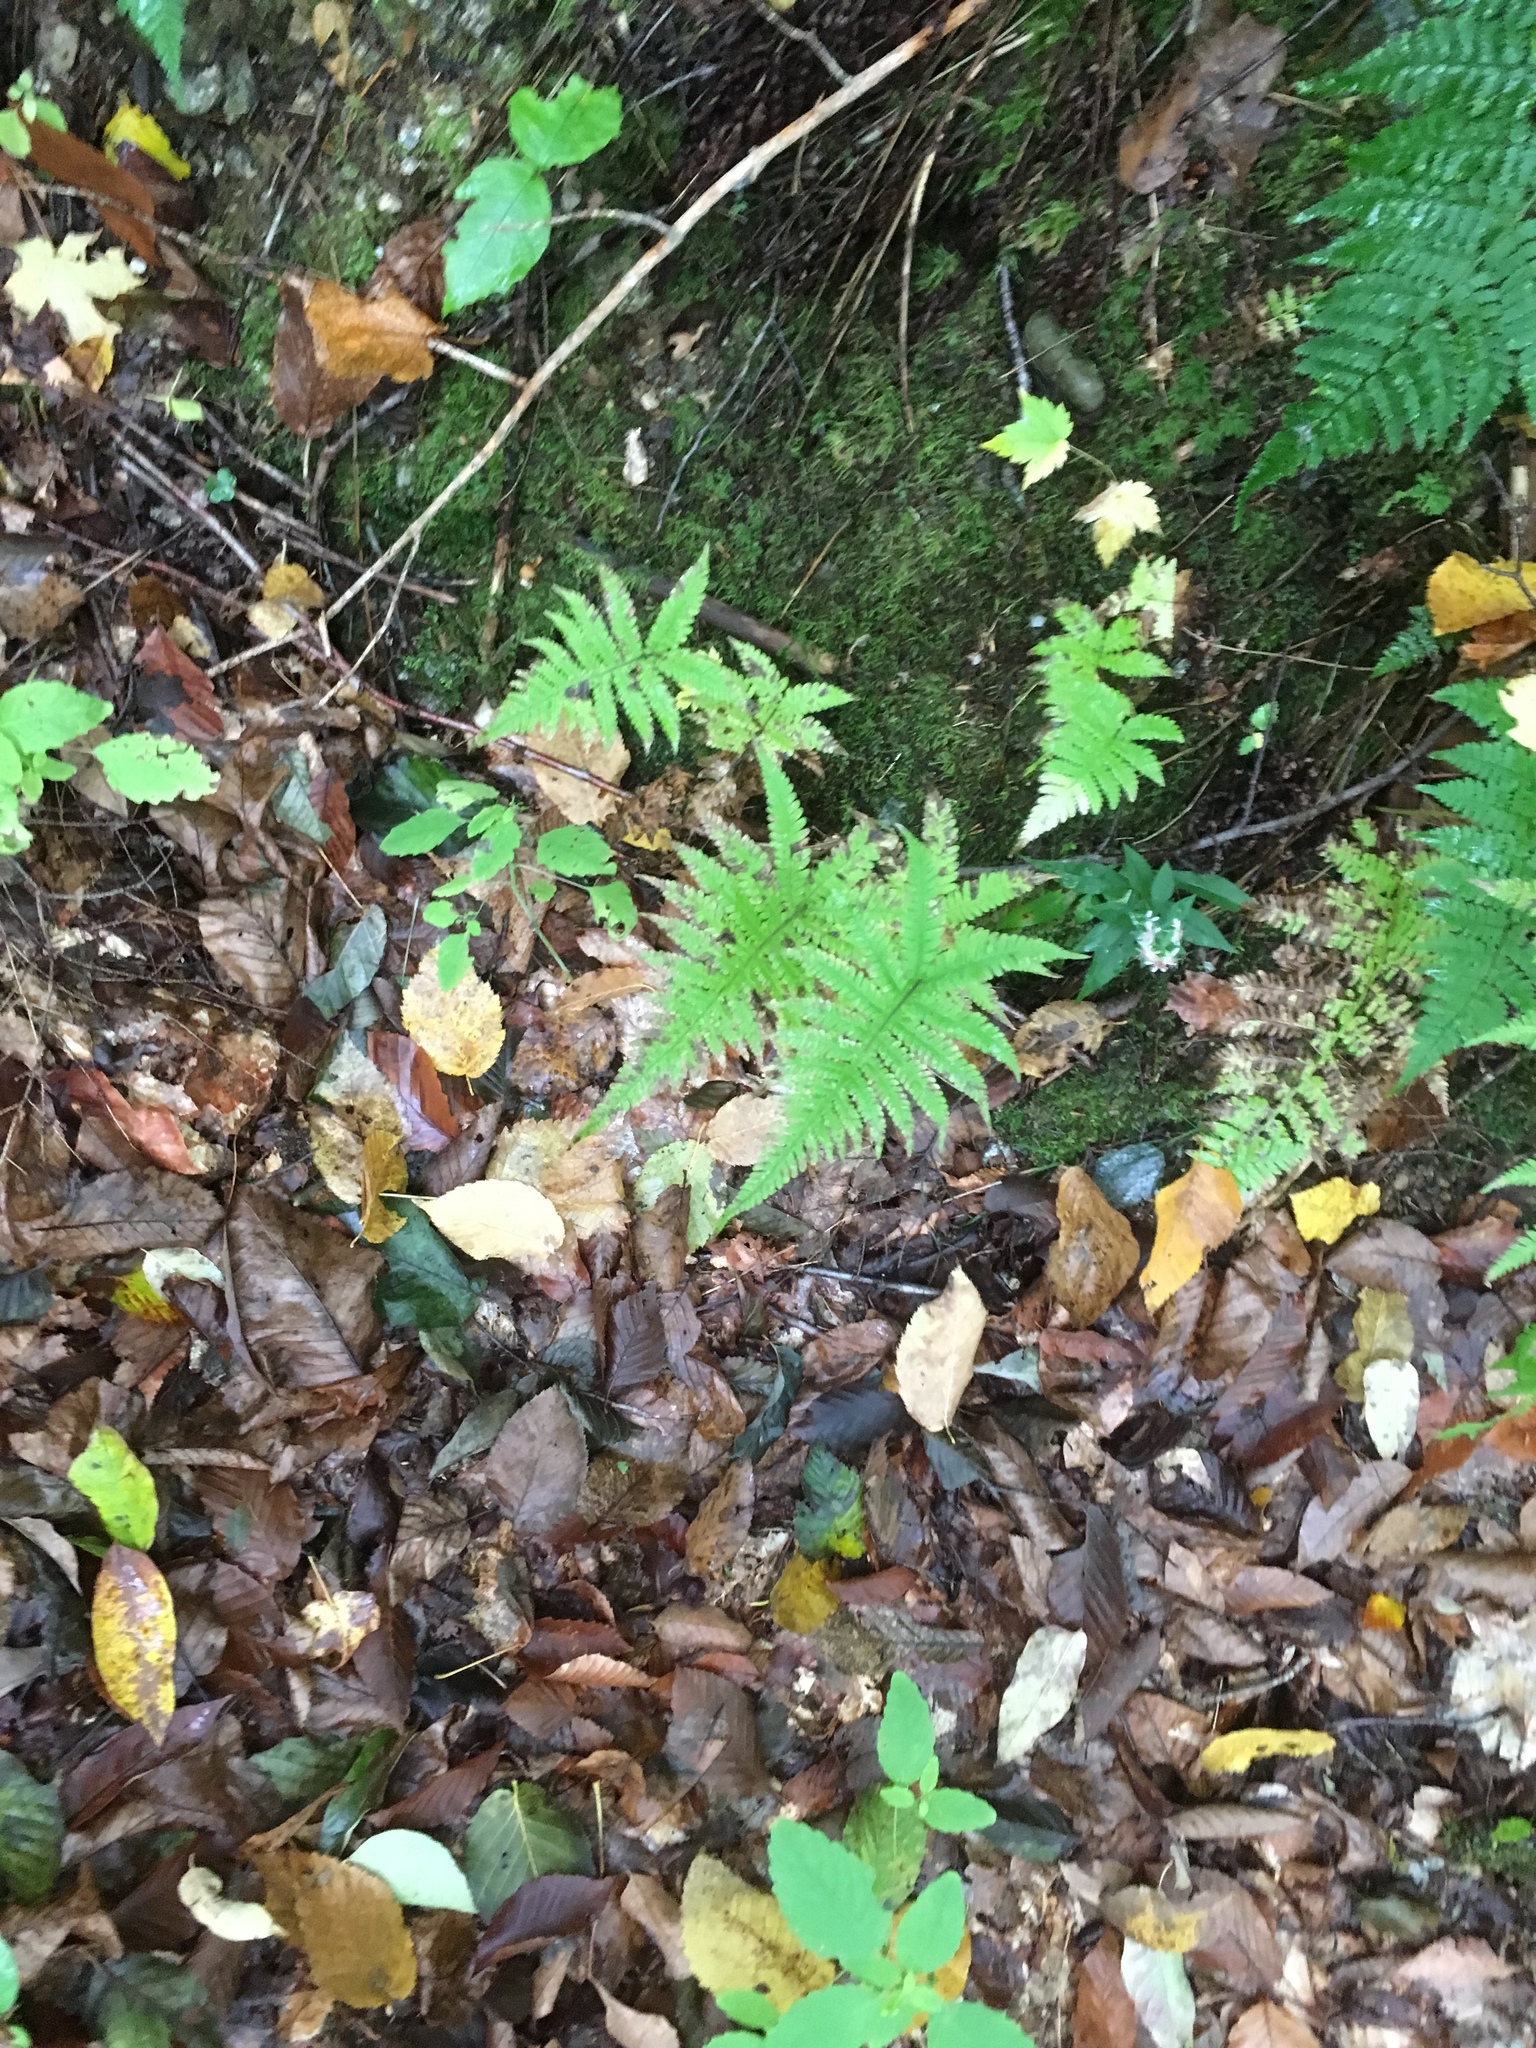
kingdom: Plantae
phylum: Tracheophyta
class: Polypodiopsida
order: Polypodiales
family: Thelypteridaceae
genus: Phegopteris
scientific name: Phegopteris connectilis
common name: Beech fern
